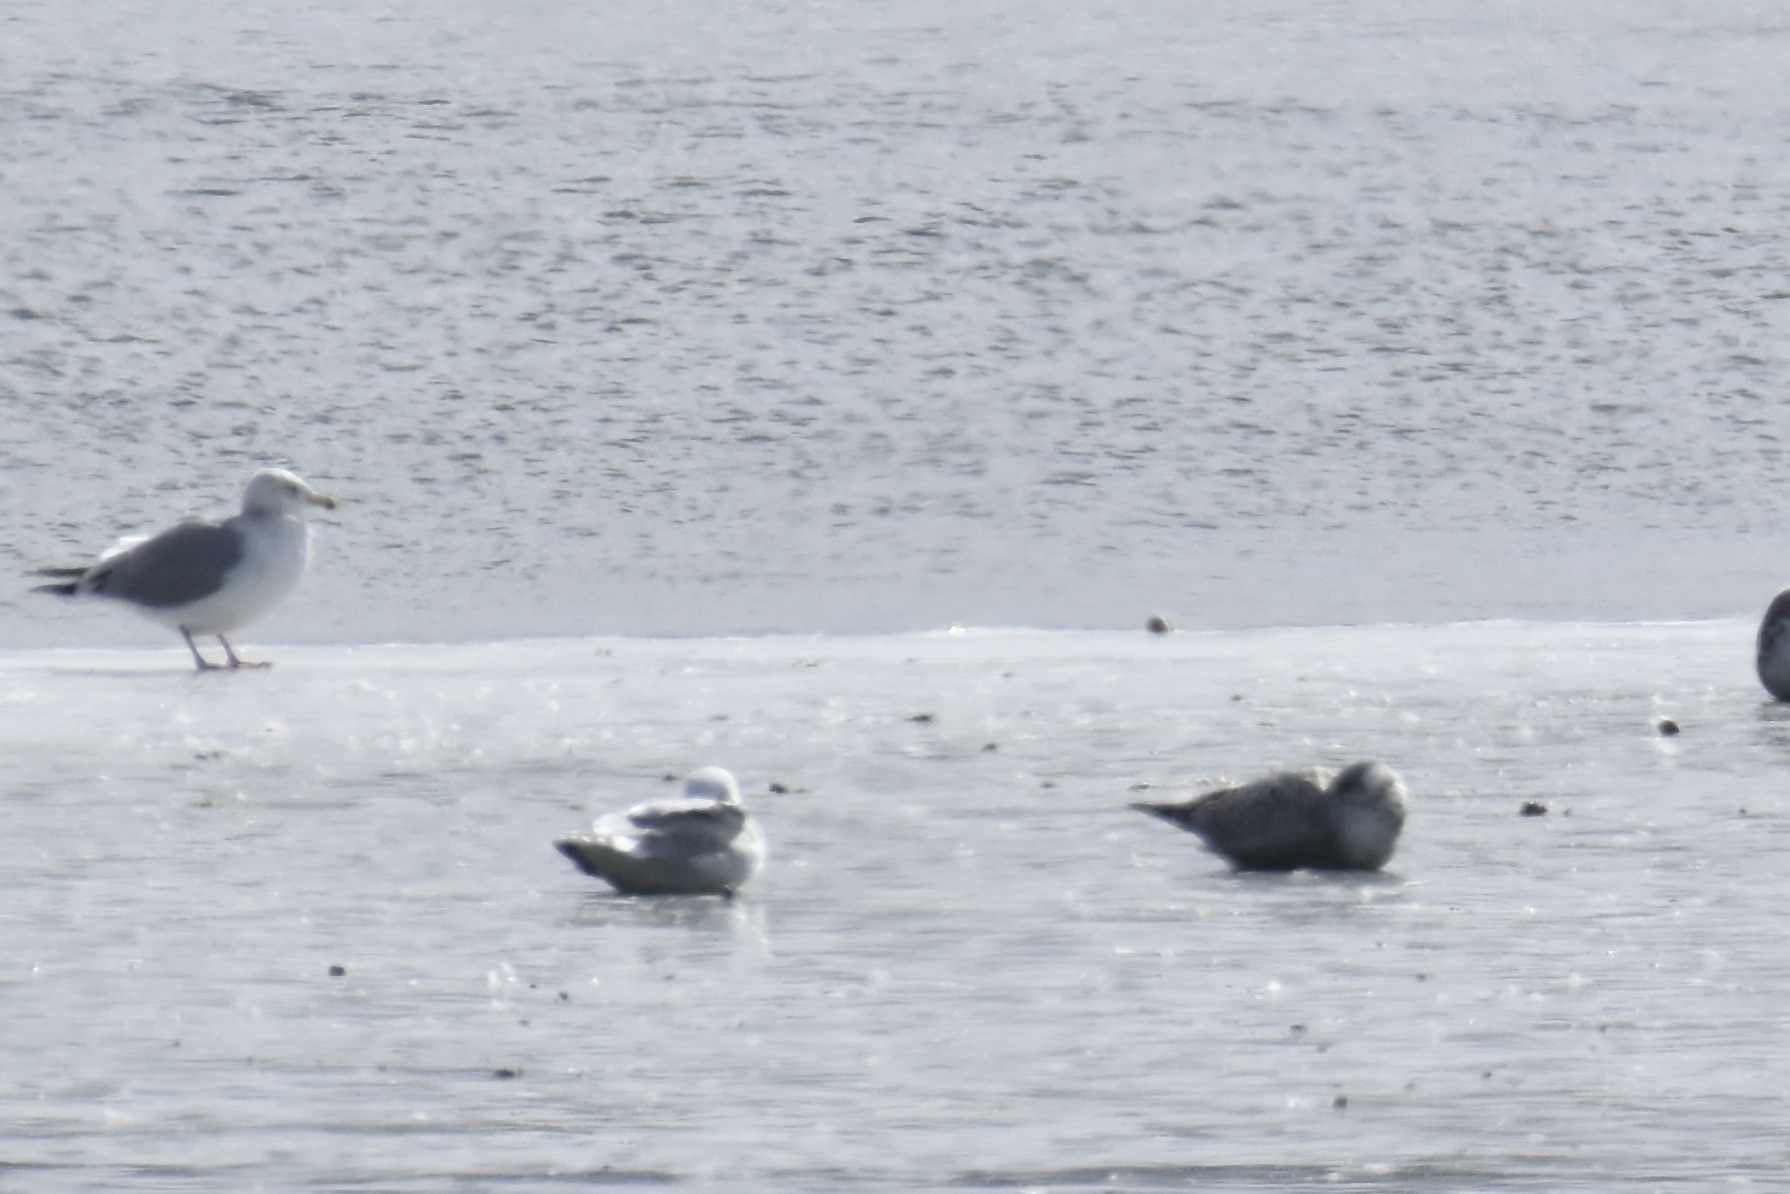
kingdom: Animalia
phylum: Chordata
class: Aves
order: Charadriiformes
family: Laridae
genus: Larus
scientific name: Larus argentatus
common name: Herring gull
